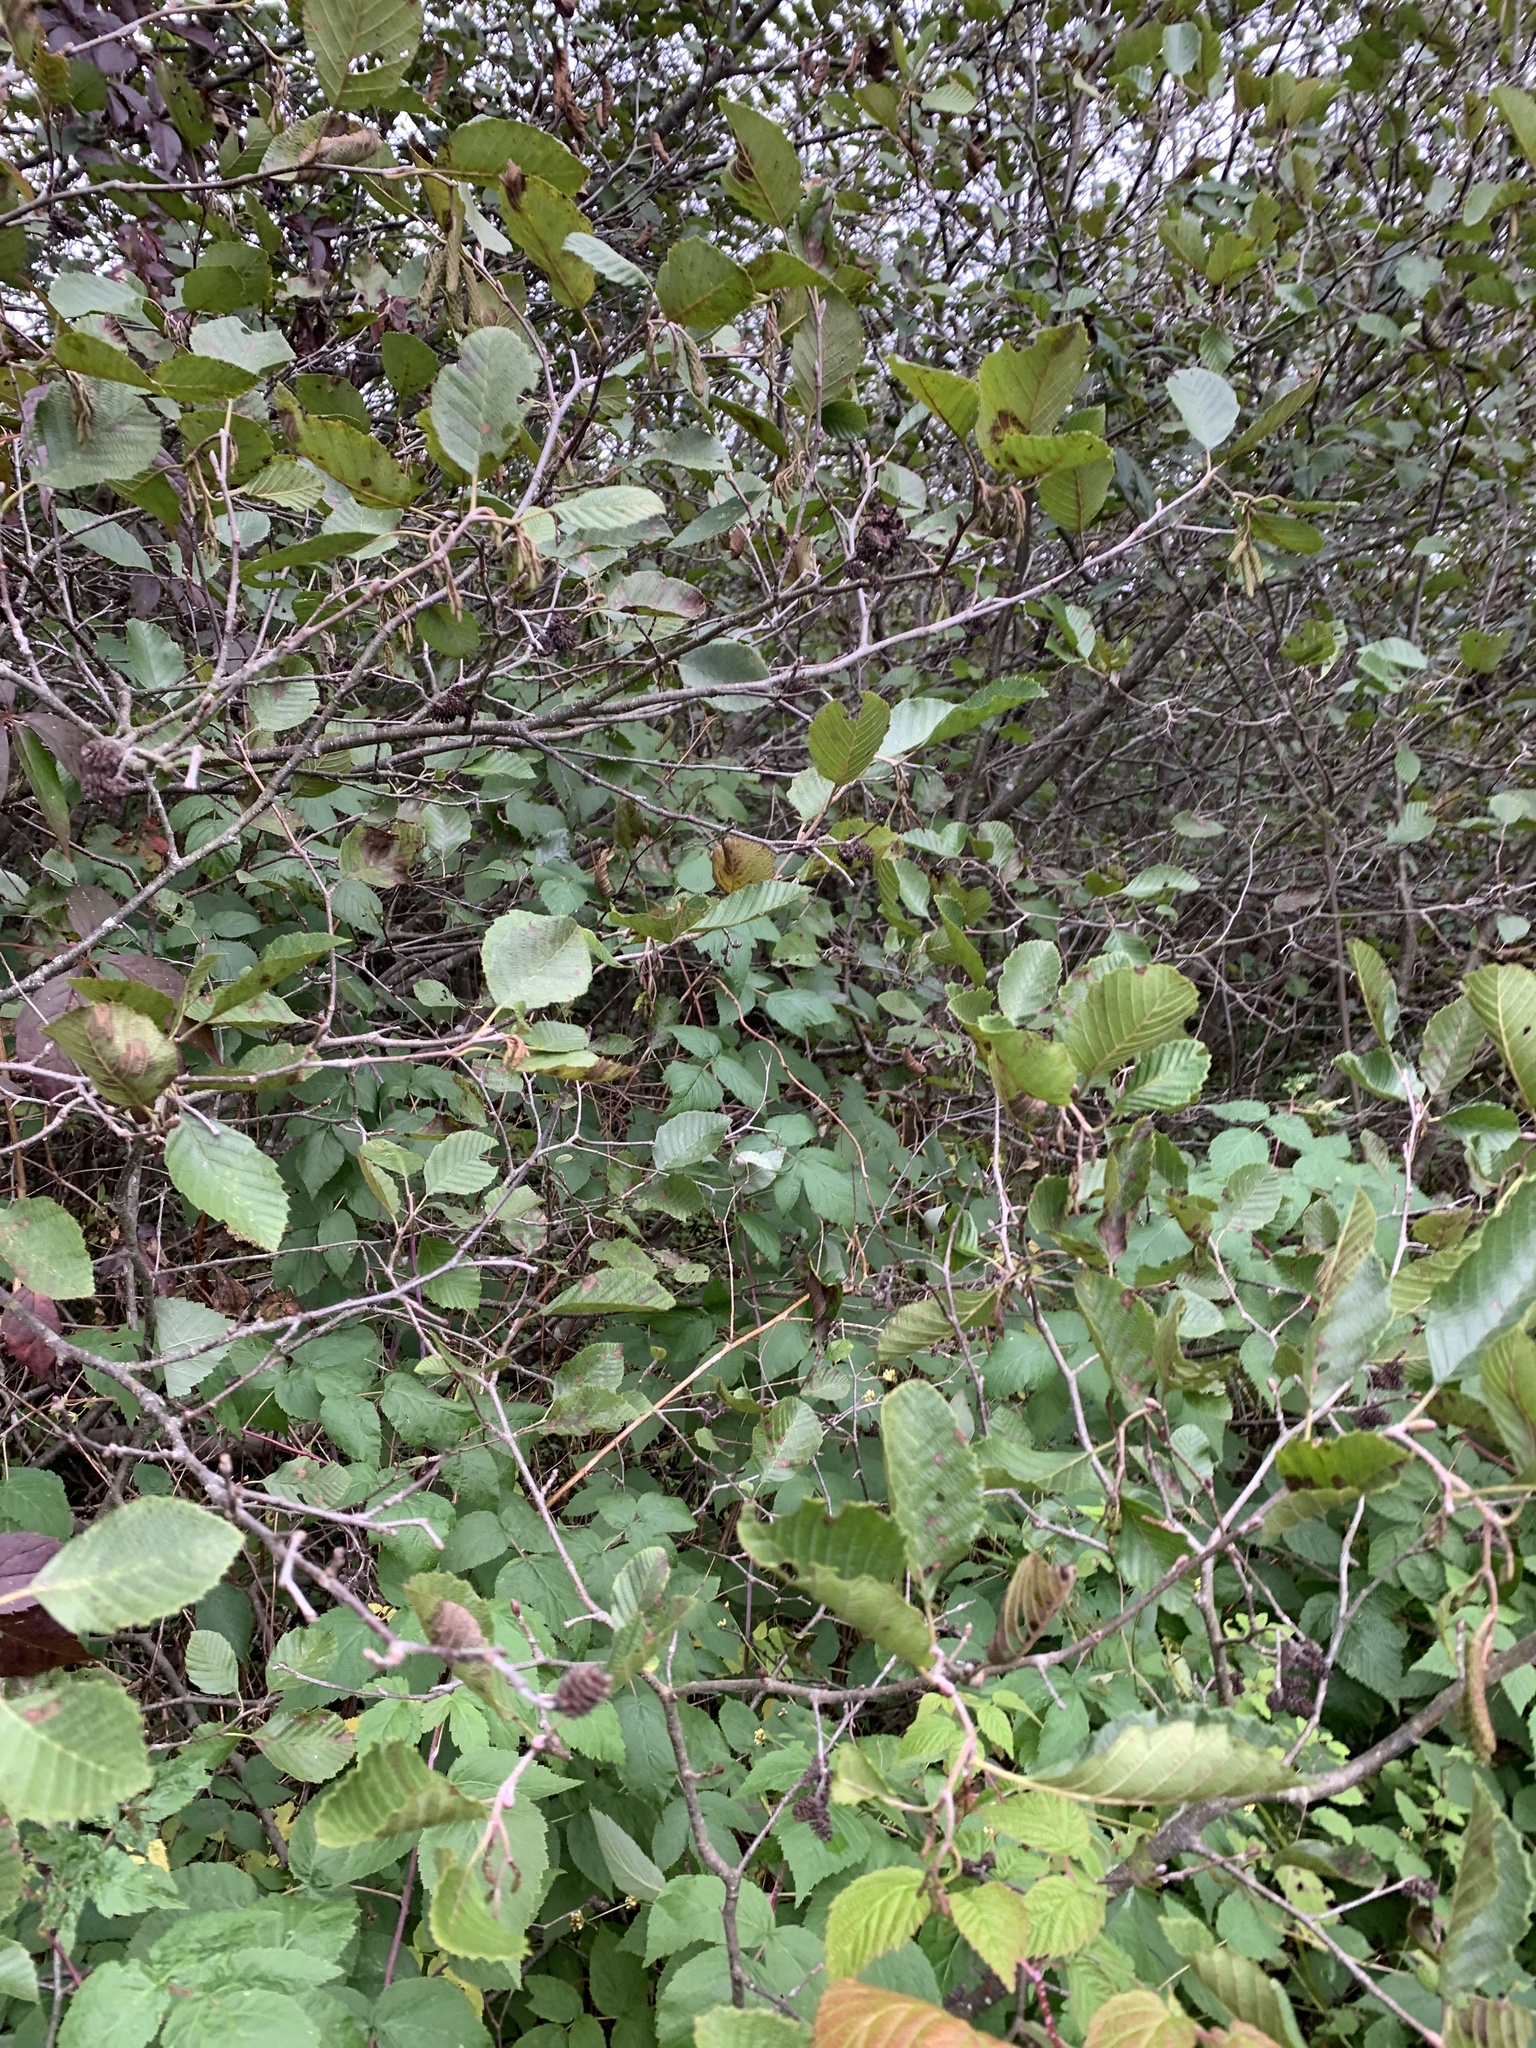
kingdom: Plantae
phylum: Tracheophyta
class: Magnoliopsida
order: Fagales
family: Betulaceae
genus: Alnus
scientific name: Alnus incana
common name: Grey alder
